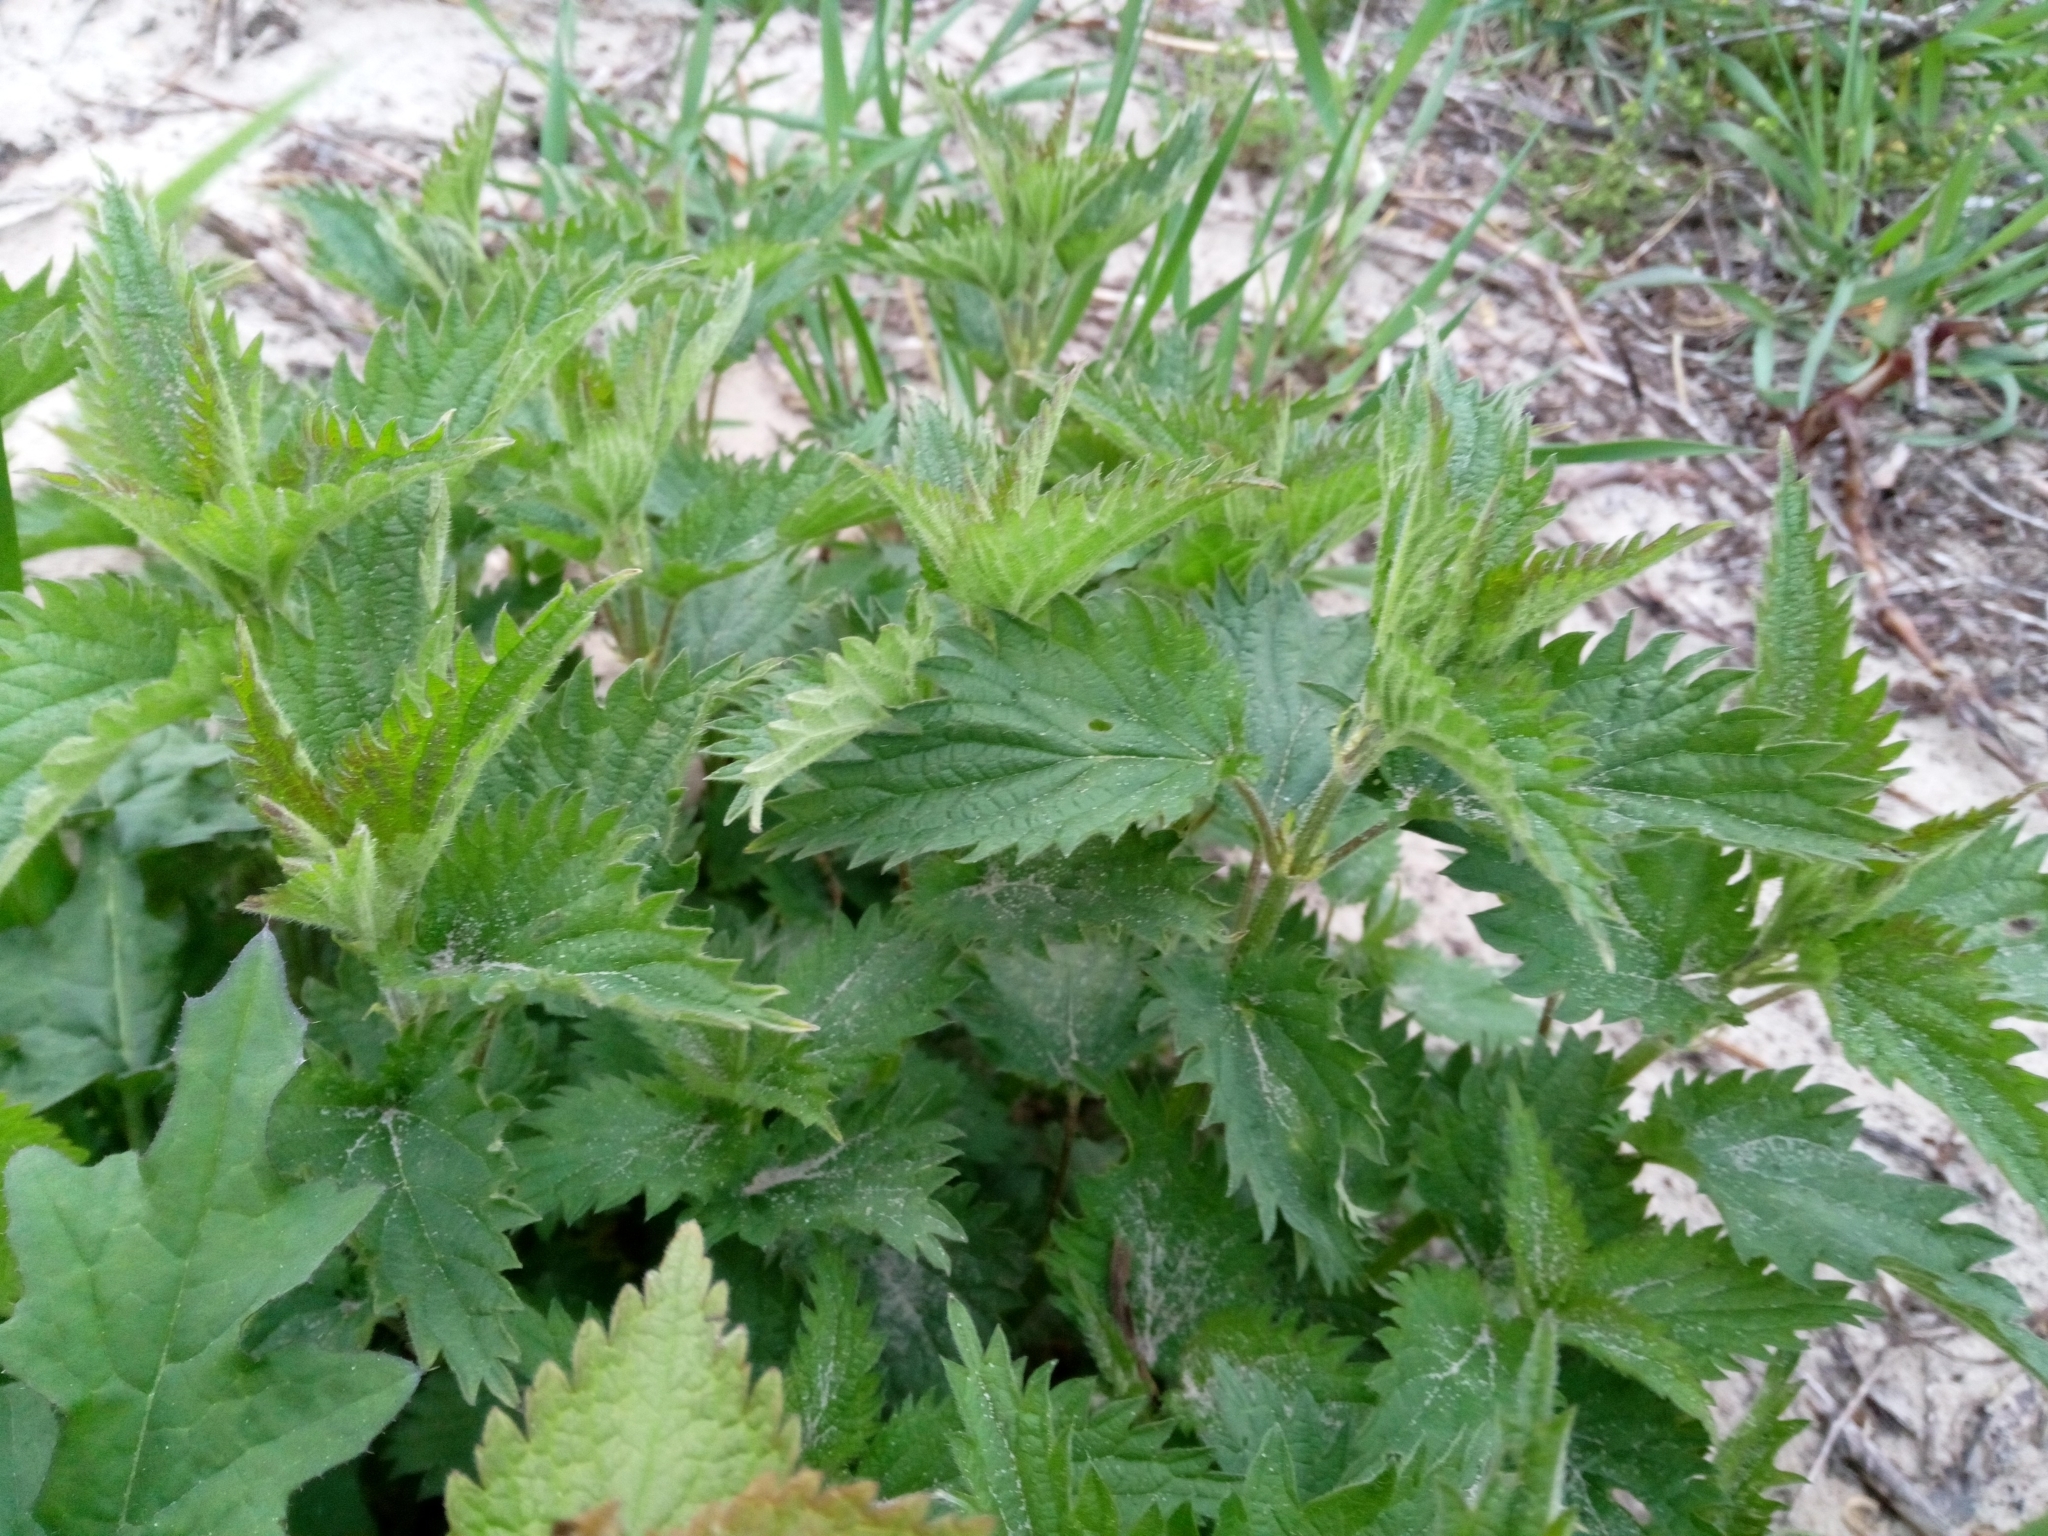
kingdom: Plantae
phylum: Tracheophyta
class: Magnoliopsida
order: Rosales
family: Urticaceae
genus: Urtica
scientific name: Urtica dioica
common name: Common nettle
